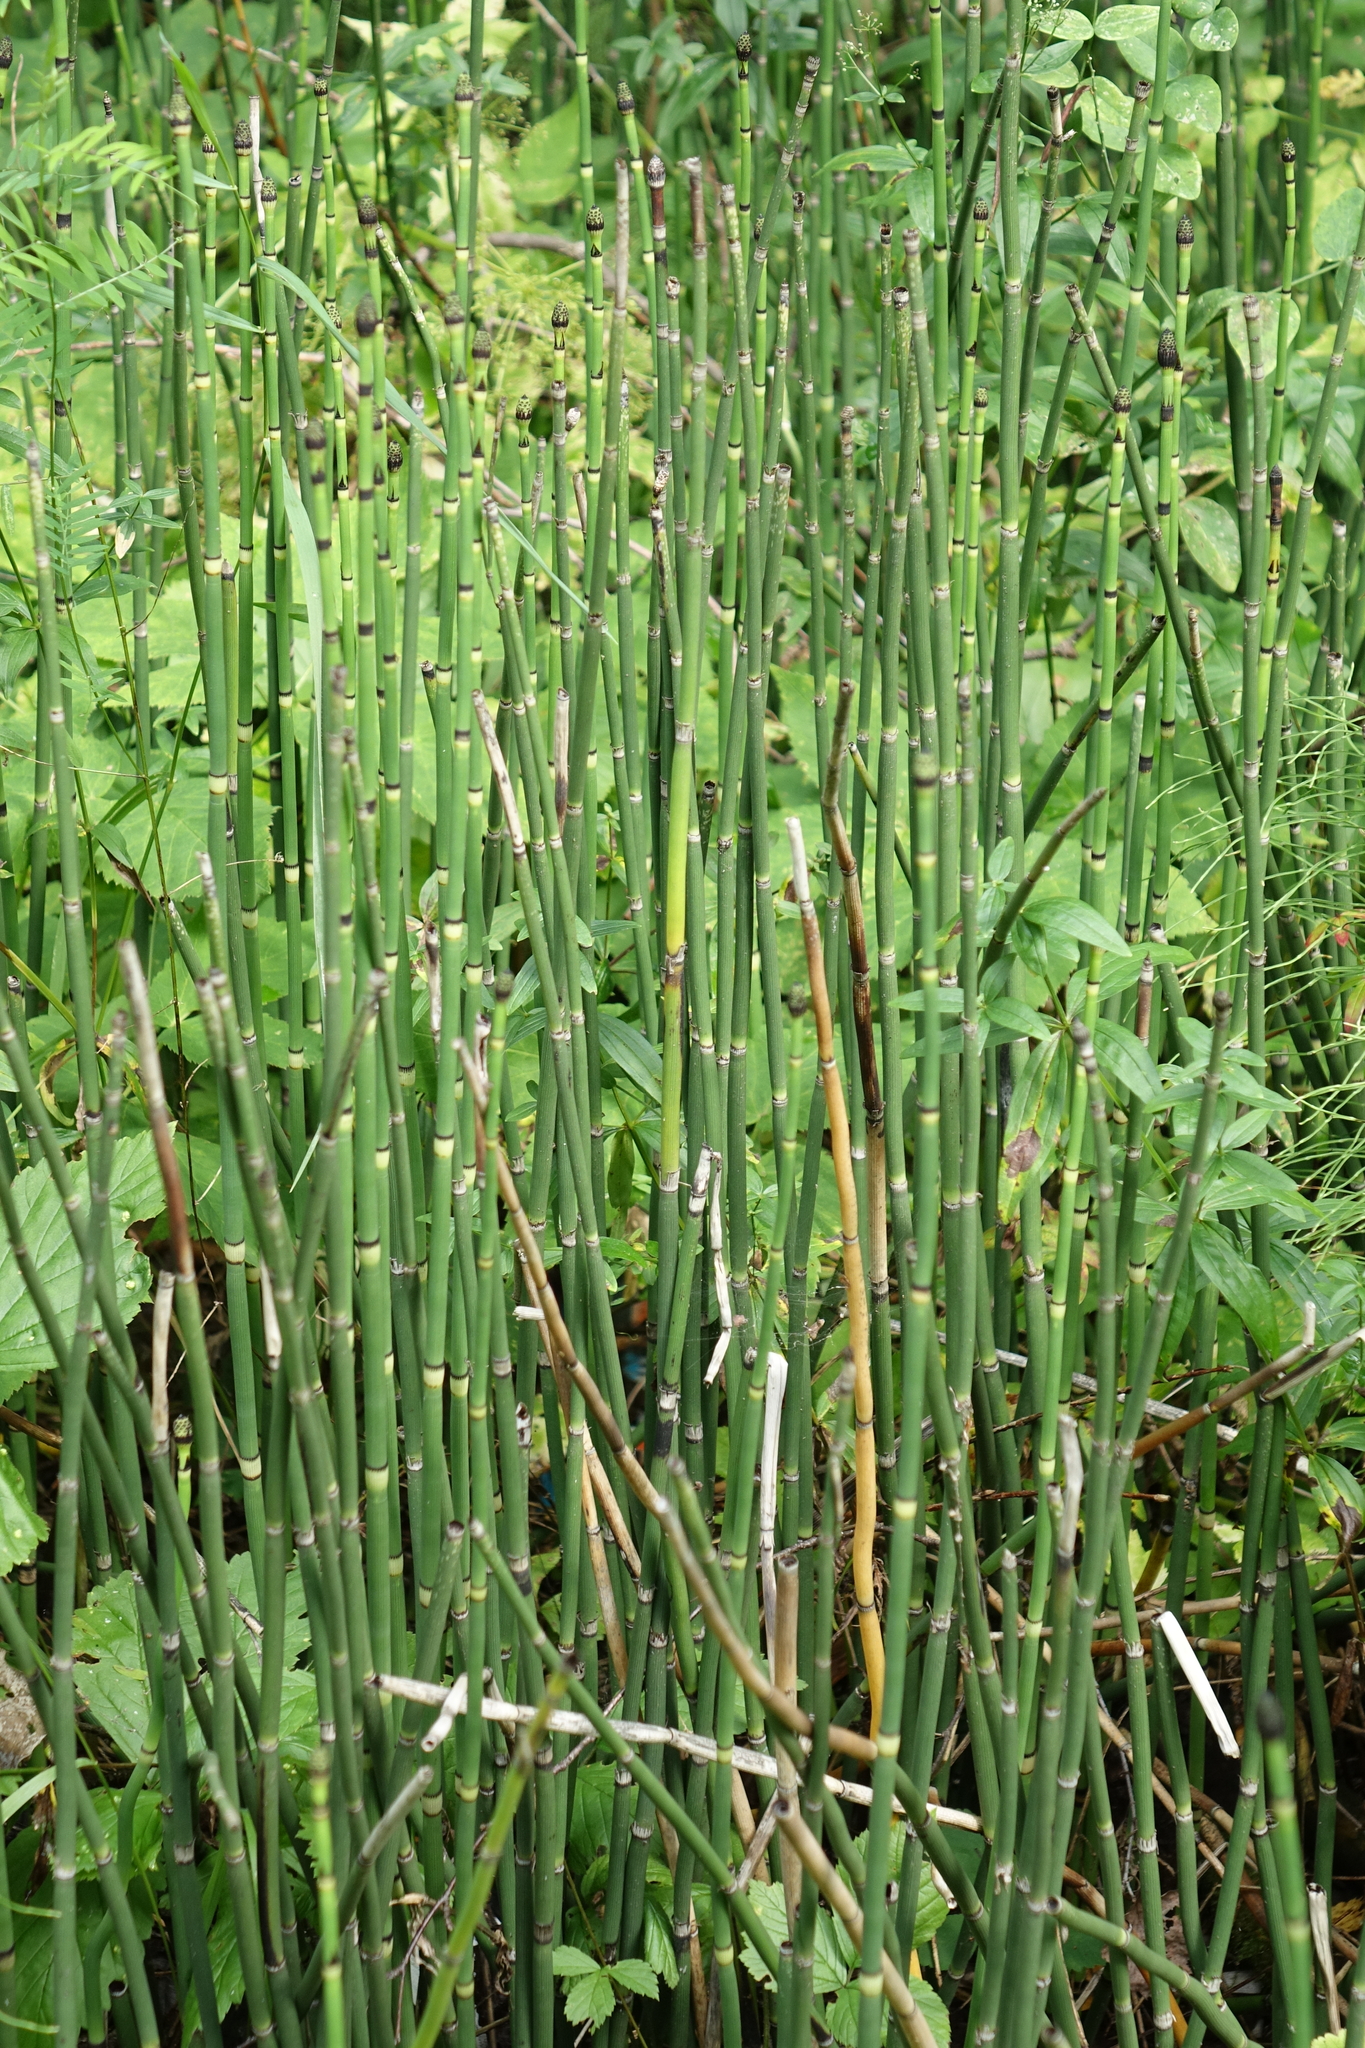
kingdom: Plantae
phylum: Tracheophyta
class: Polypodiopsida
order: Equisetales
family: Equisetaceae
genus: Equisetum
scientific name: Equisetum hyemale
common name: Rough horsetail
